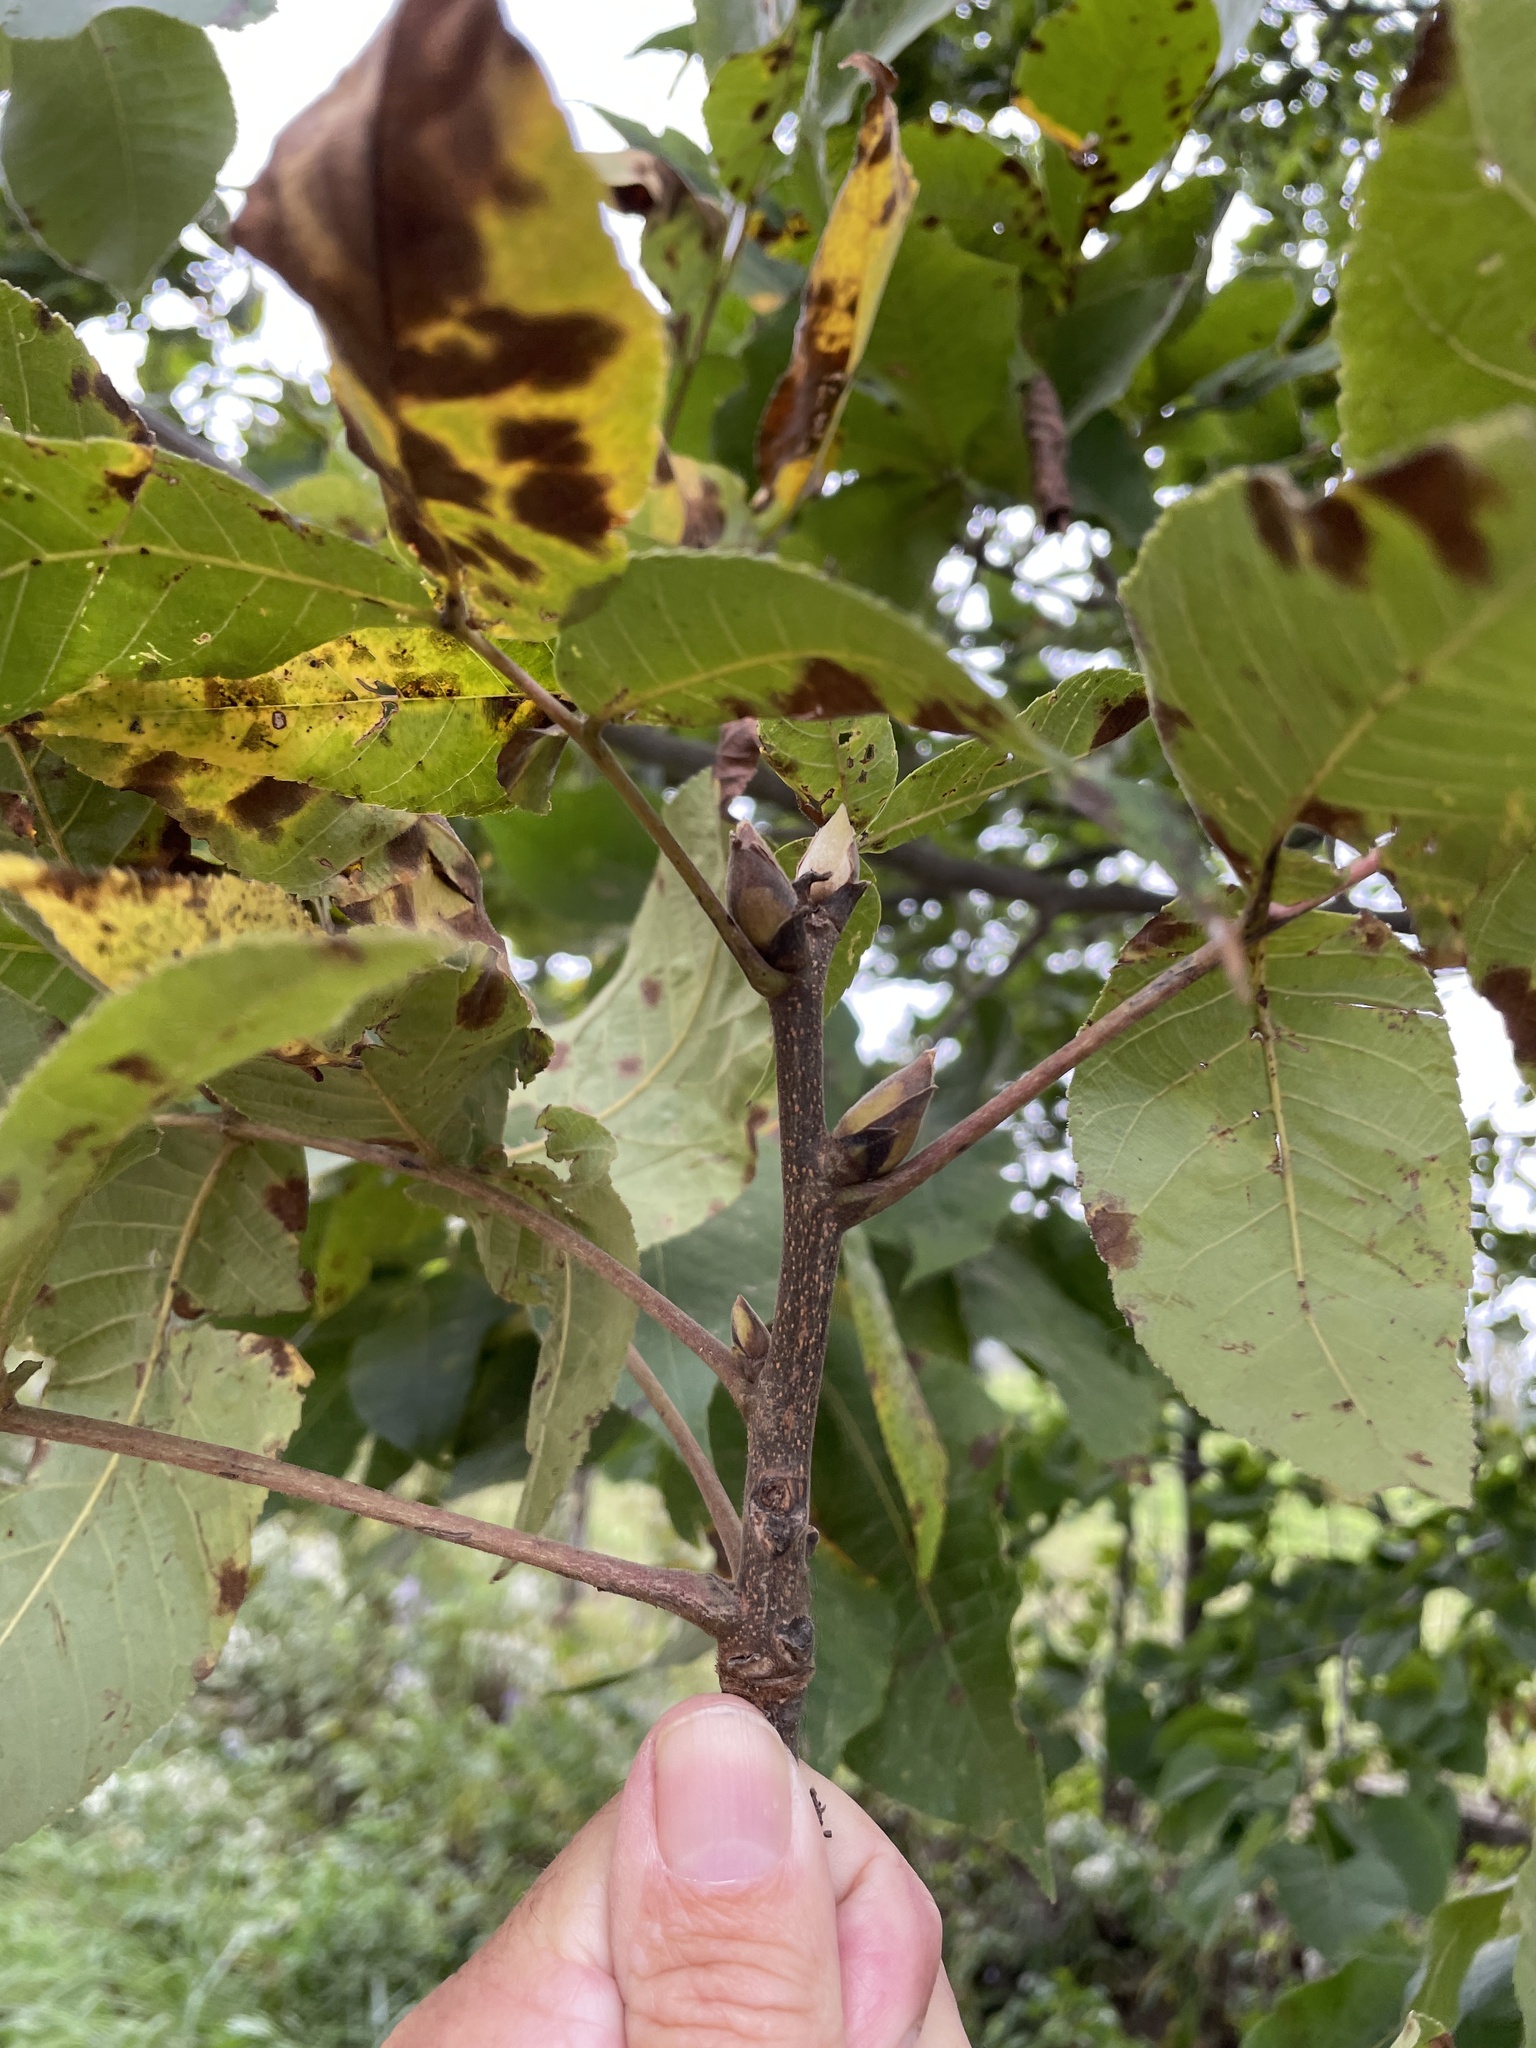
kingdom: Plantae
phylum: Tracheophyta
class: Magnoliopsida
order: Fagales
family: Juglandaceae
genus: Carya
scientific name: Carya laciniosa
